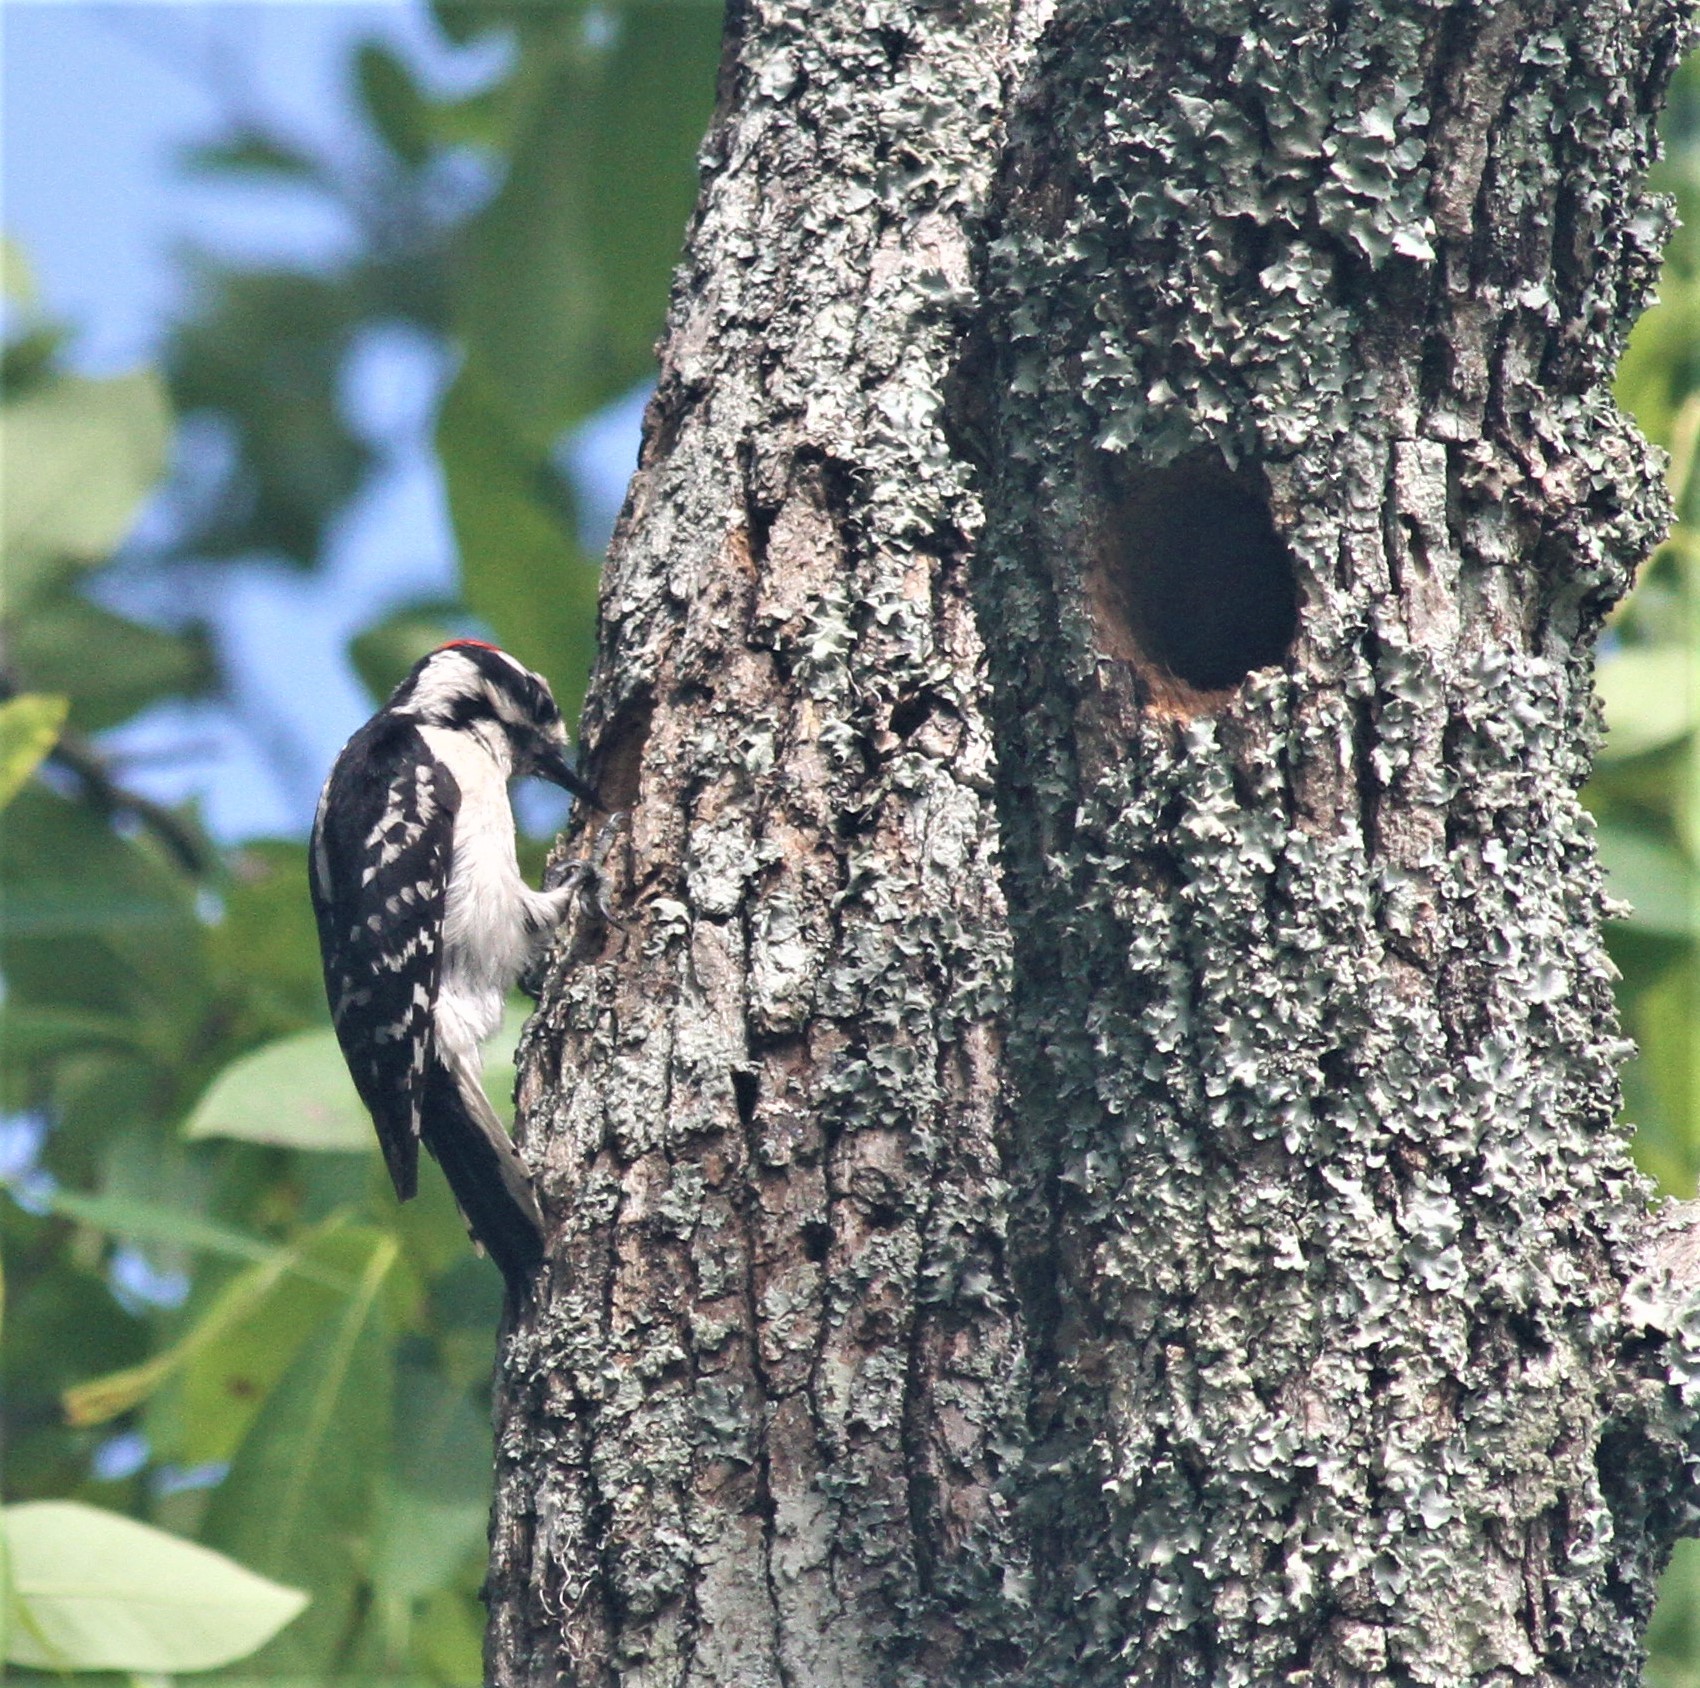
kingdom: Animalia
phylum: Chordata
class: Aves
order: Piciformes
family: Picidae
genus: Dryobates
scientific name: Dryobates pubescens
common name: Downy woodpecker
